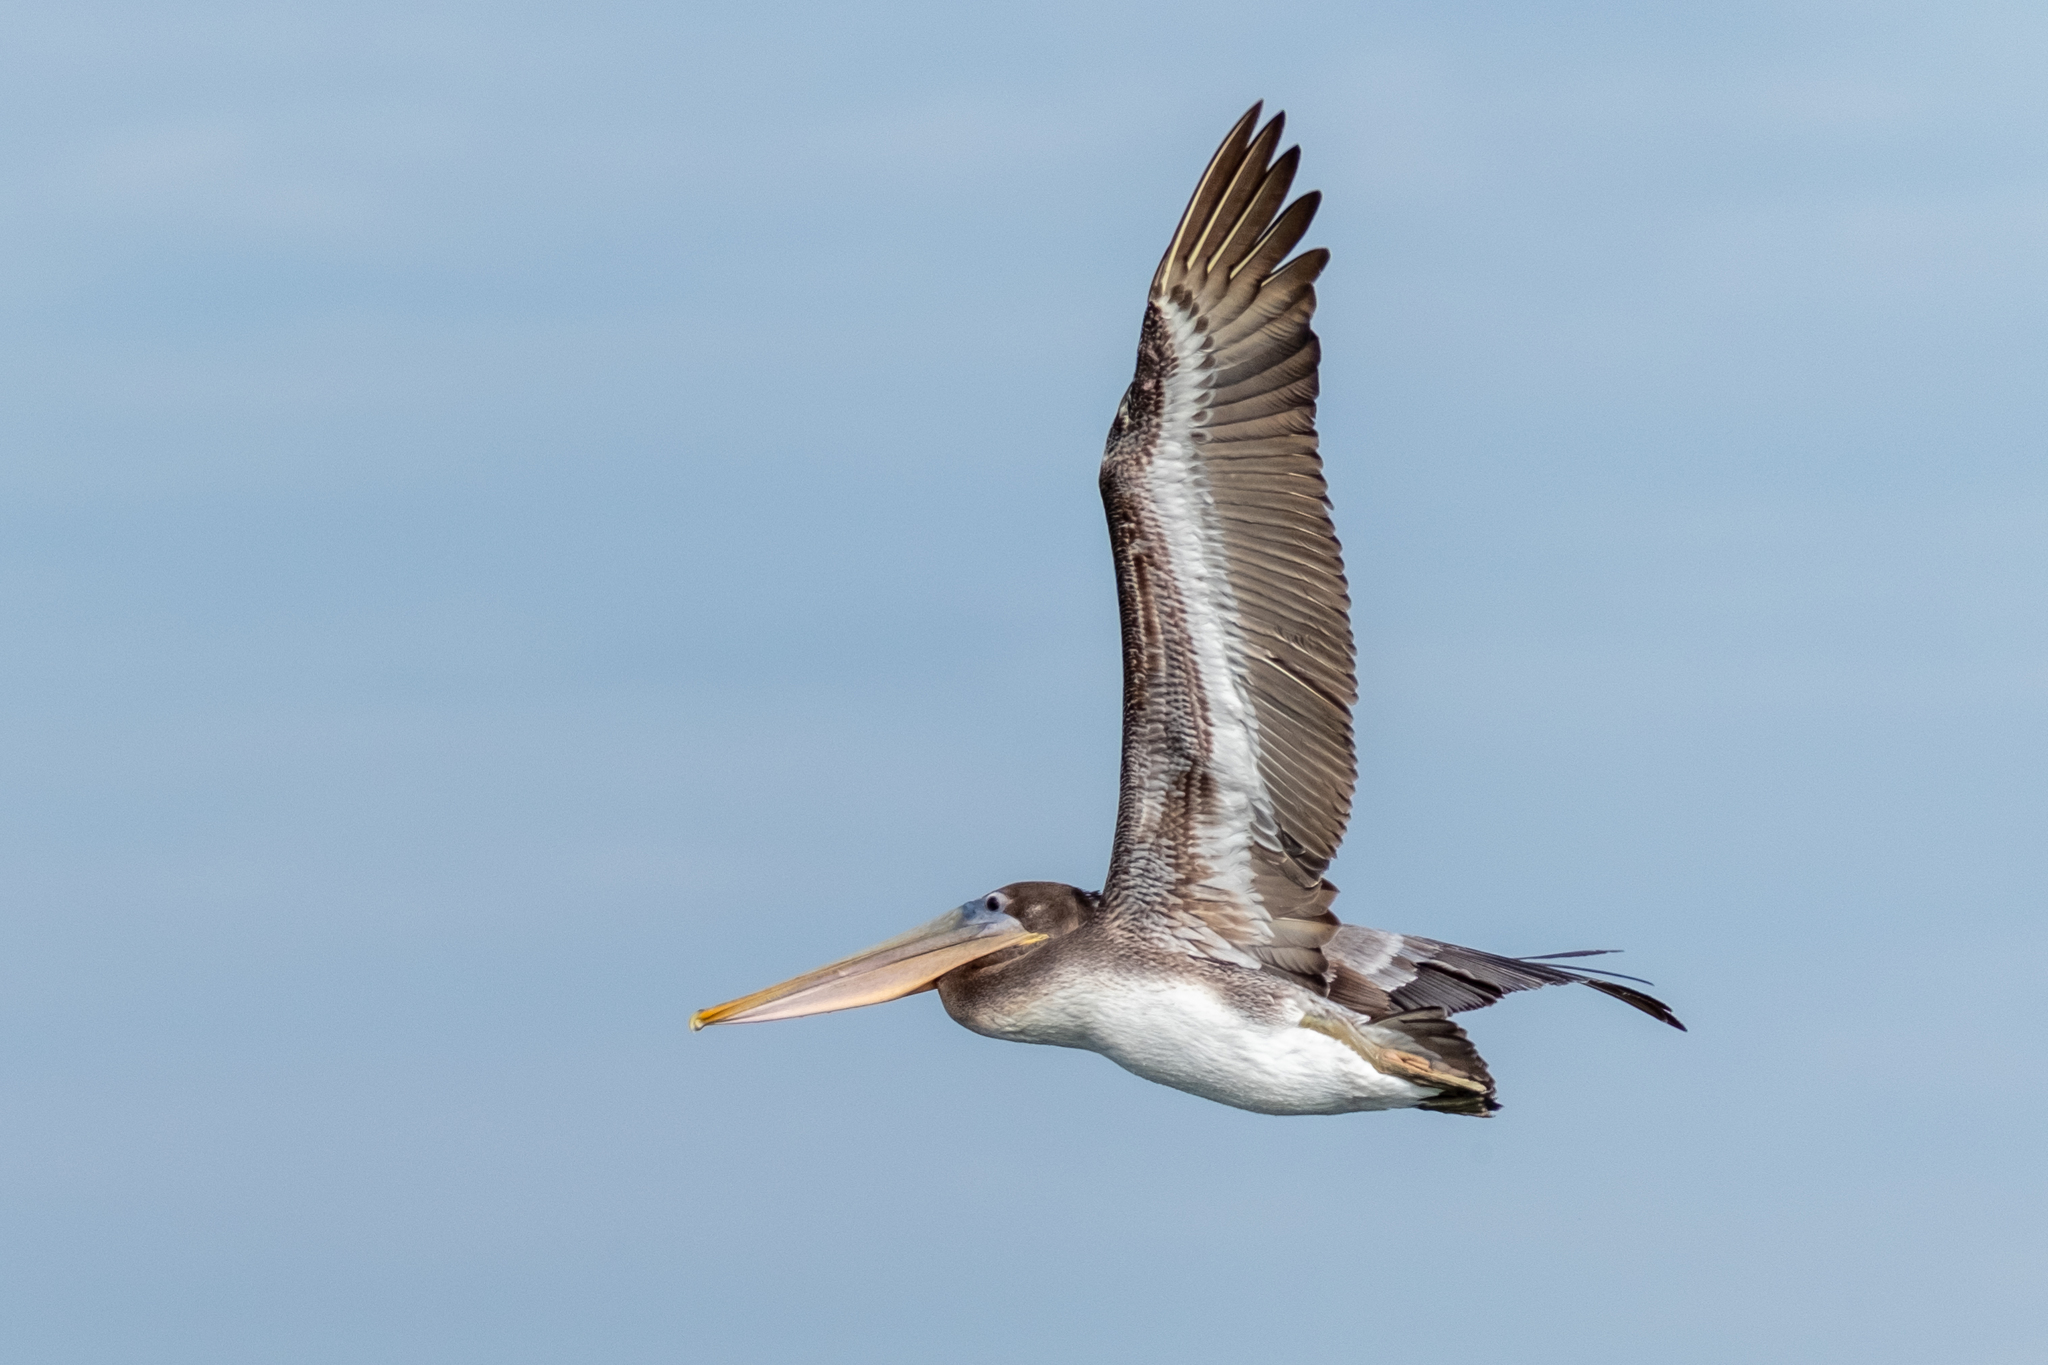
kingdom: Animalia
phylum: Chordata
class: Aves
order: Pelecaniformes
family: Pelecanidae
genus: Pelecanus
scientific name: Pelecanus occidentalis
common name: Brown pelican
